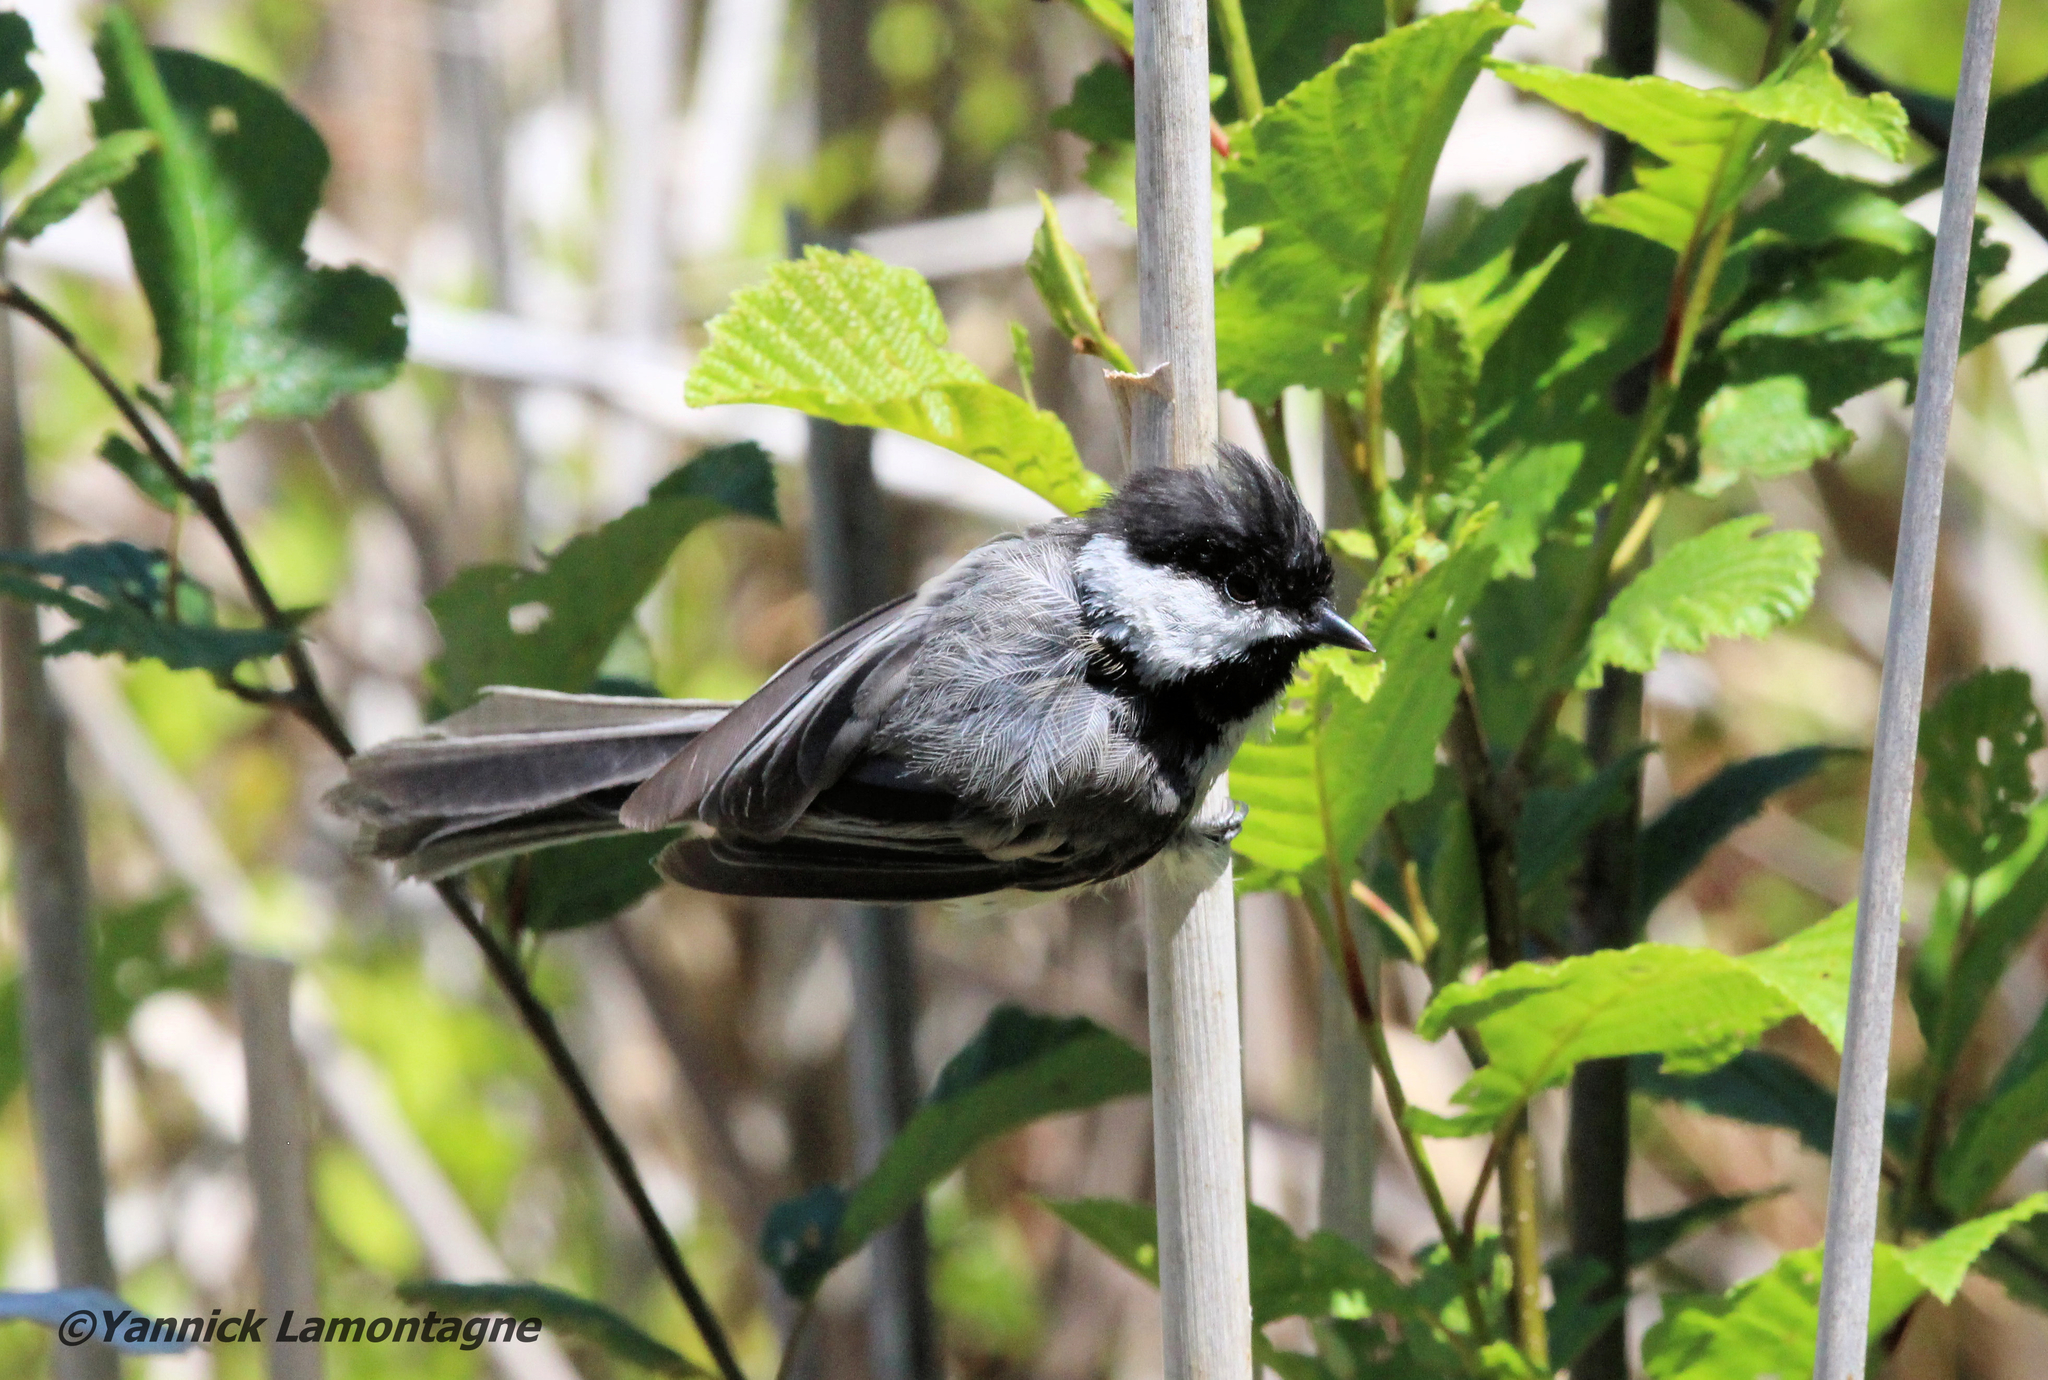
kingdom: Animalia
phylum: Chordata
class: Aves
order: Passeriformes
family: Paridae
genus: Poecile
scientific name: Poecile atricapillus
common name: Black-capped chickadee
